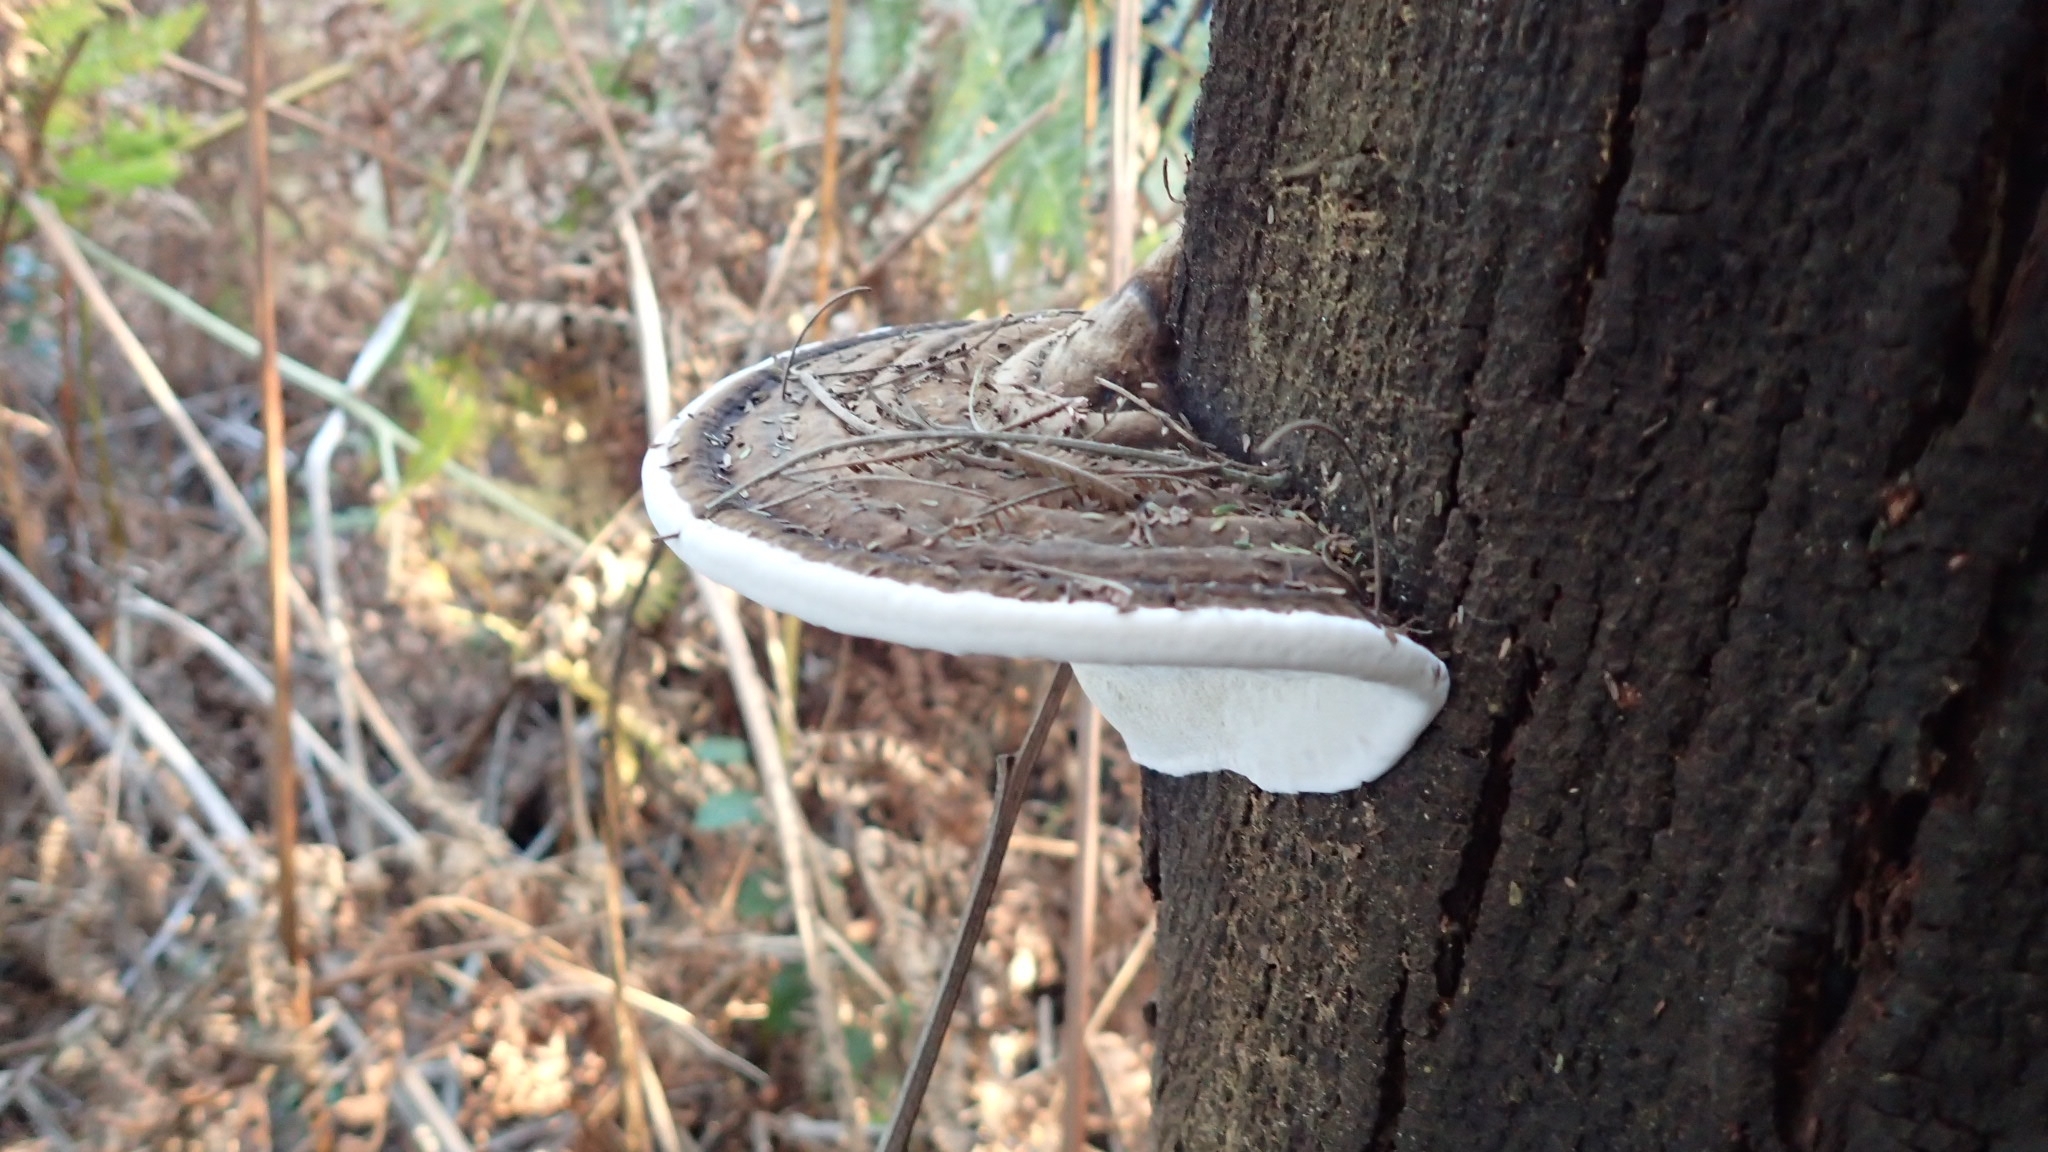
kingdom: Fungi
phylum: Basidiomycota
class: Agaricomycetes
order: Polyporales
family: Polyporaceae
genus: Ganoderma
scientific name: Ganoderma applanatum
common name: Artist's bracket
